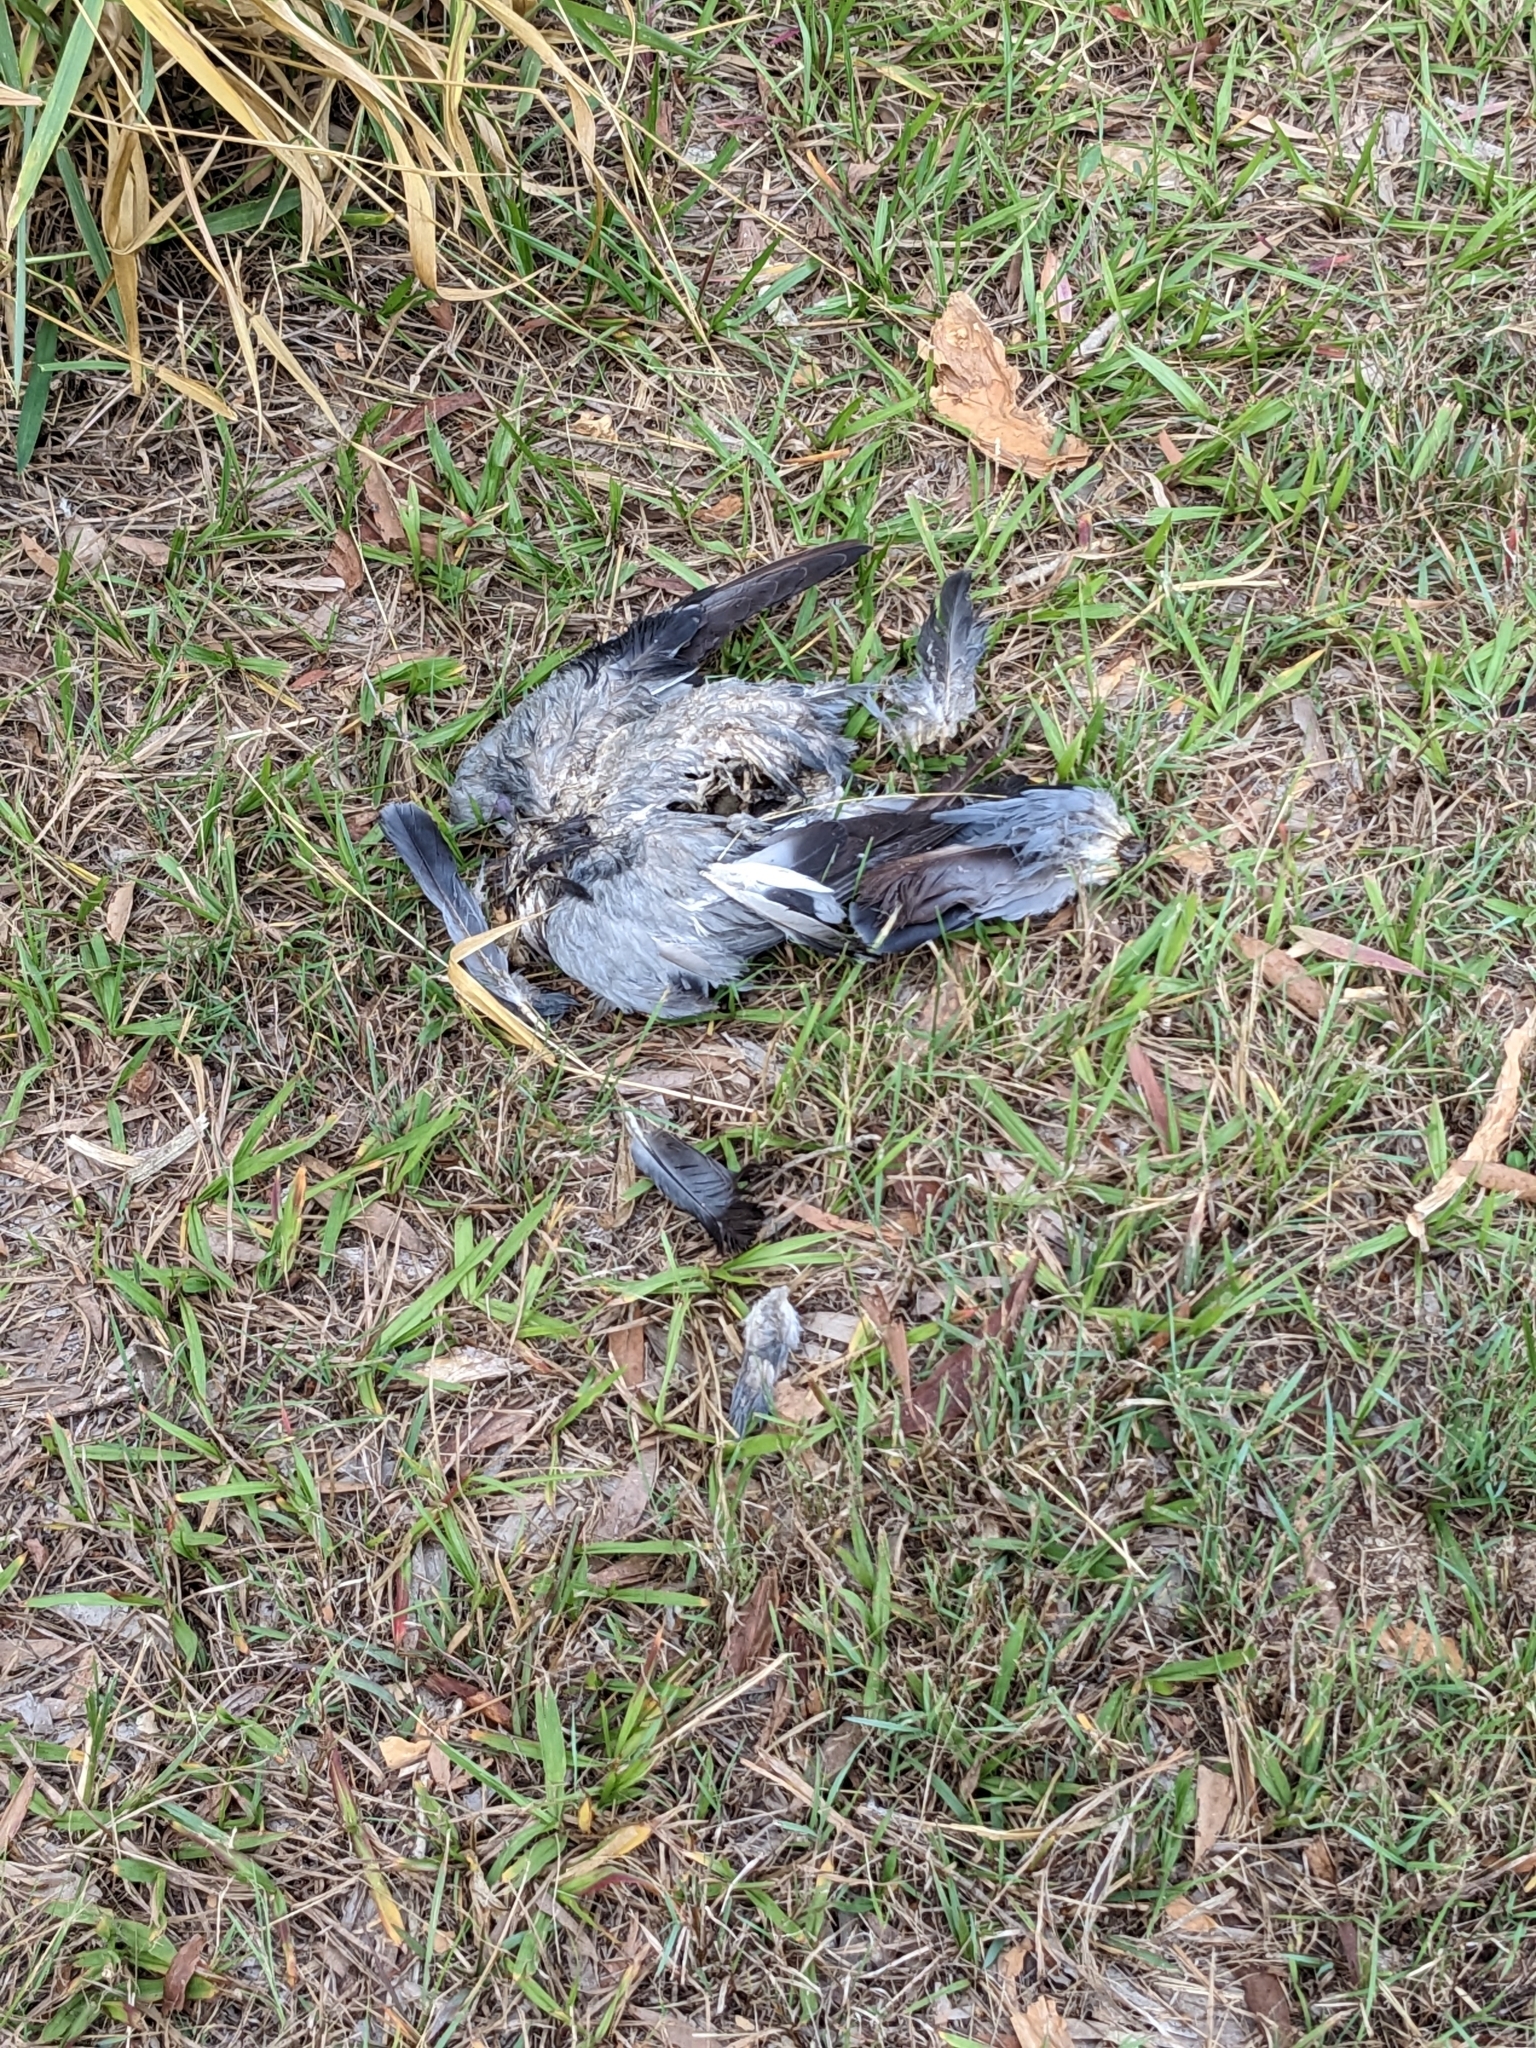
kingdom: Animalia
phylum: Chordata
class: Aves
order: Columbiformes
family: Columbidae
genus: Columba
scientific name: Columba livia
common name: Rock pigeon
